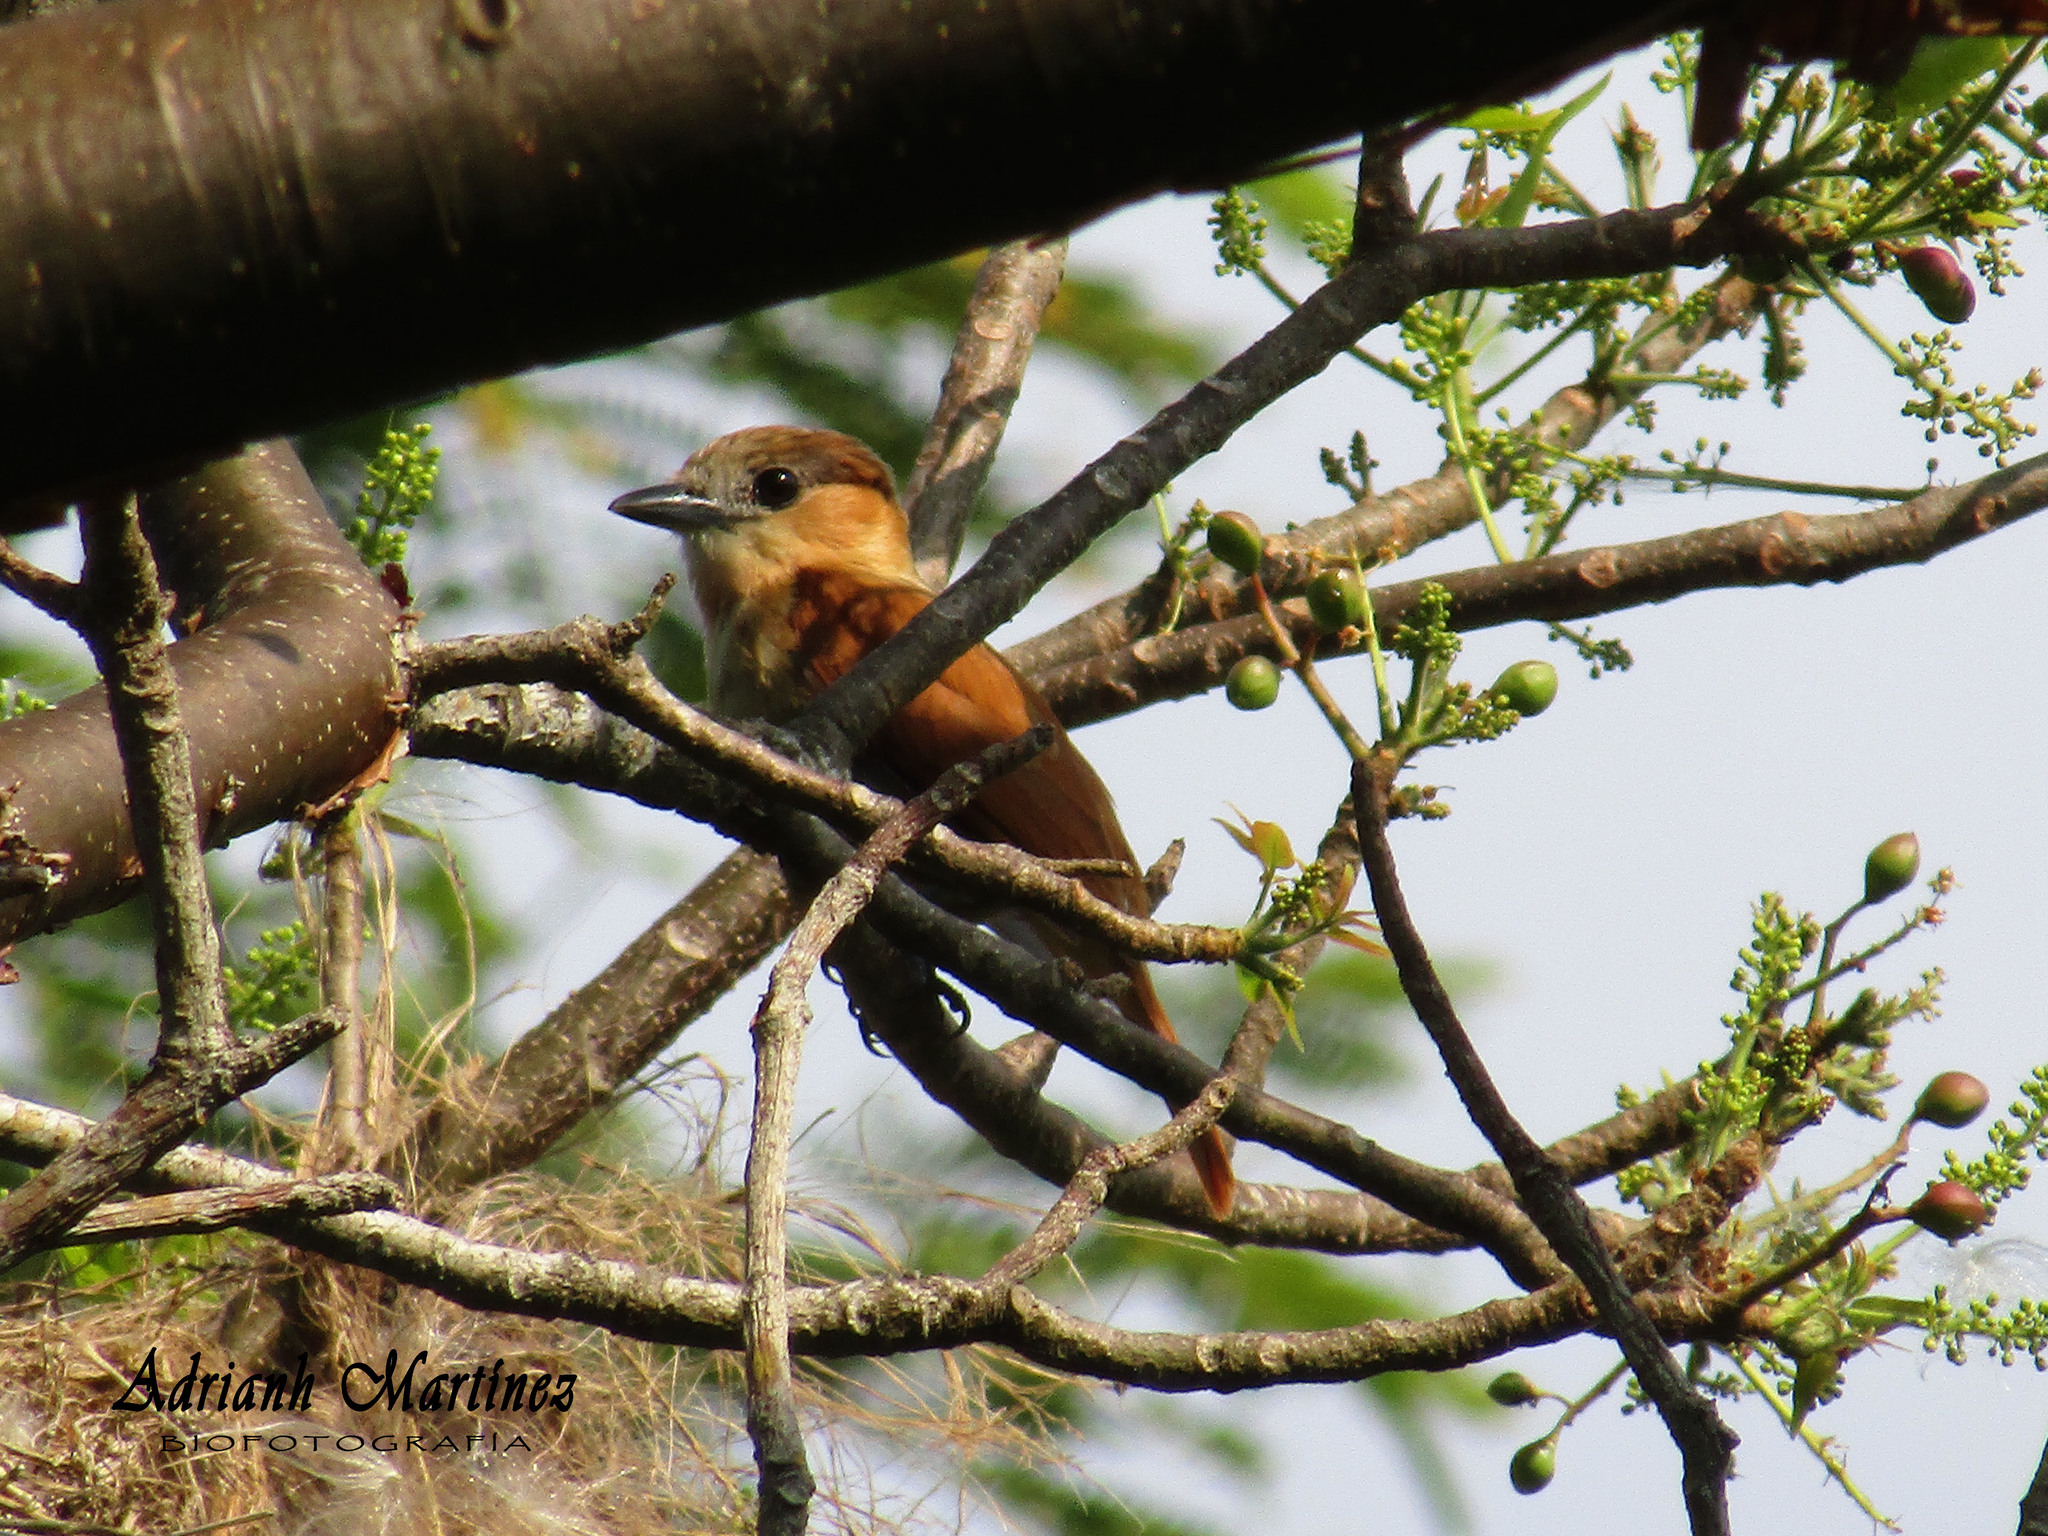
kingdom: Animalia
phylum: Chordata
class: Aves
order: Passeriformes
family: Cotingidae
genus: Pachyramphus
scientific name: Pachyramphus aglaiae
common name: Rose-throated becard
